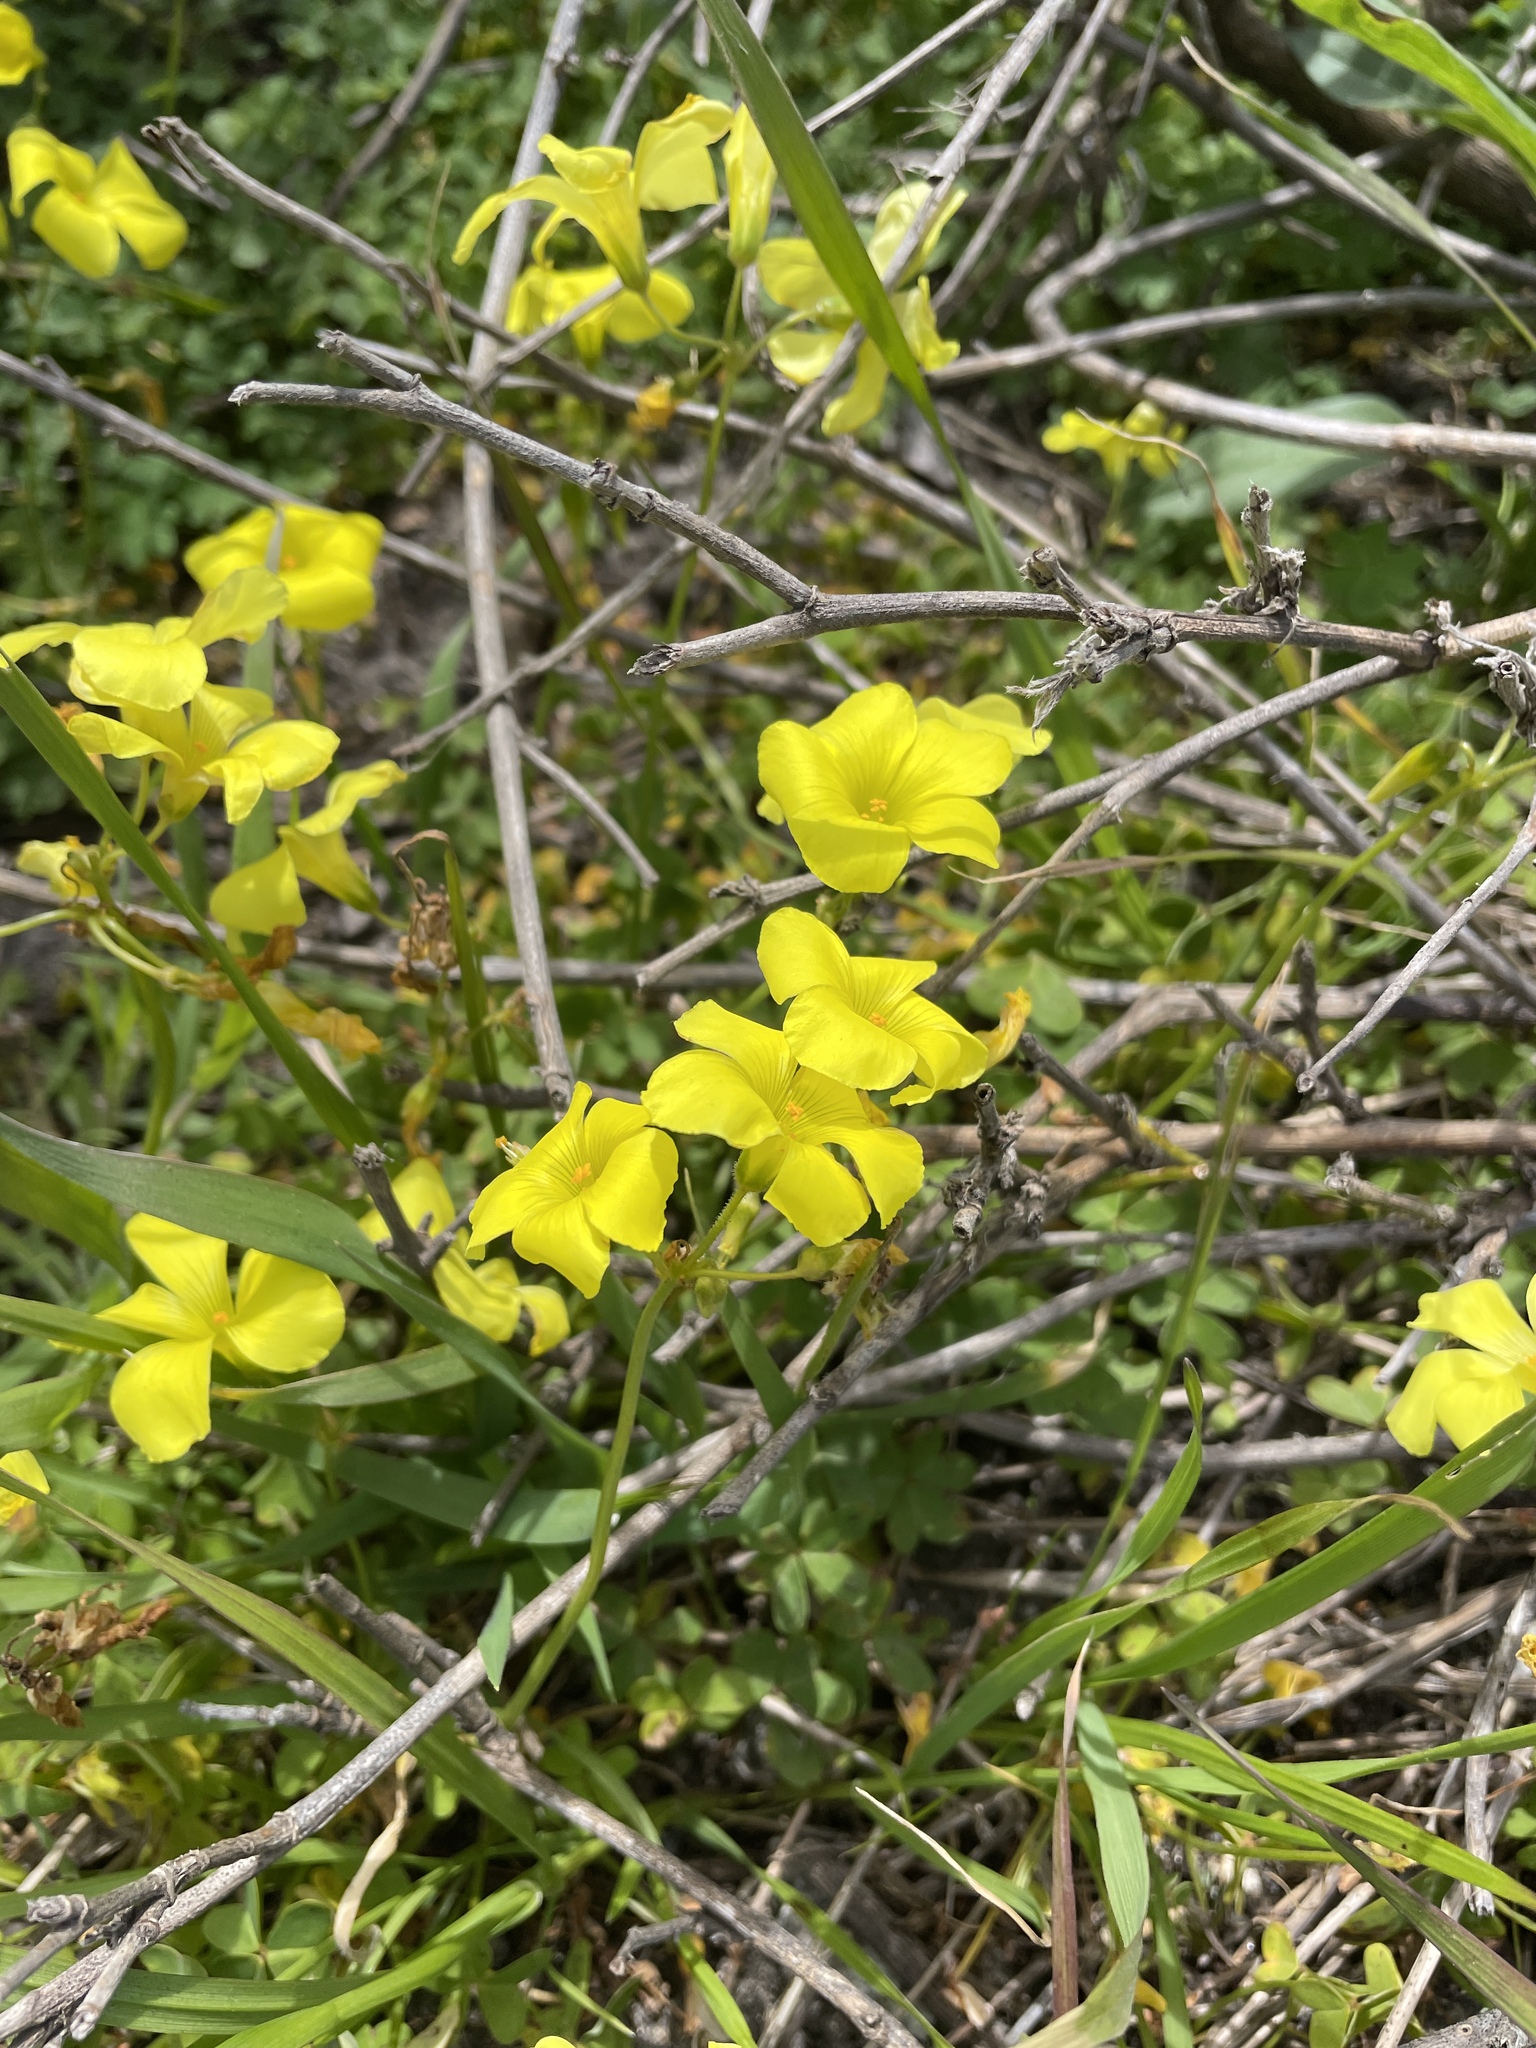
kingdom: Plantae
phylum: Tracheophyta
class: Magnoliopsida
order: Oxalidales
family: Oxalidaceae
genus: Oxalis
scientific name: Oxalis pes-caprae
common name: Bermuda-buttercup
